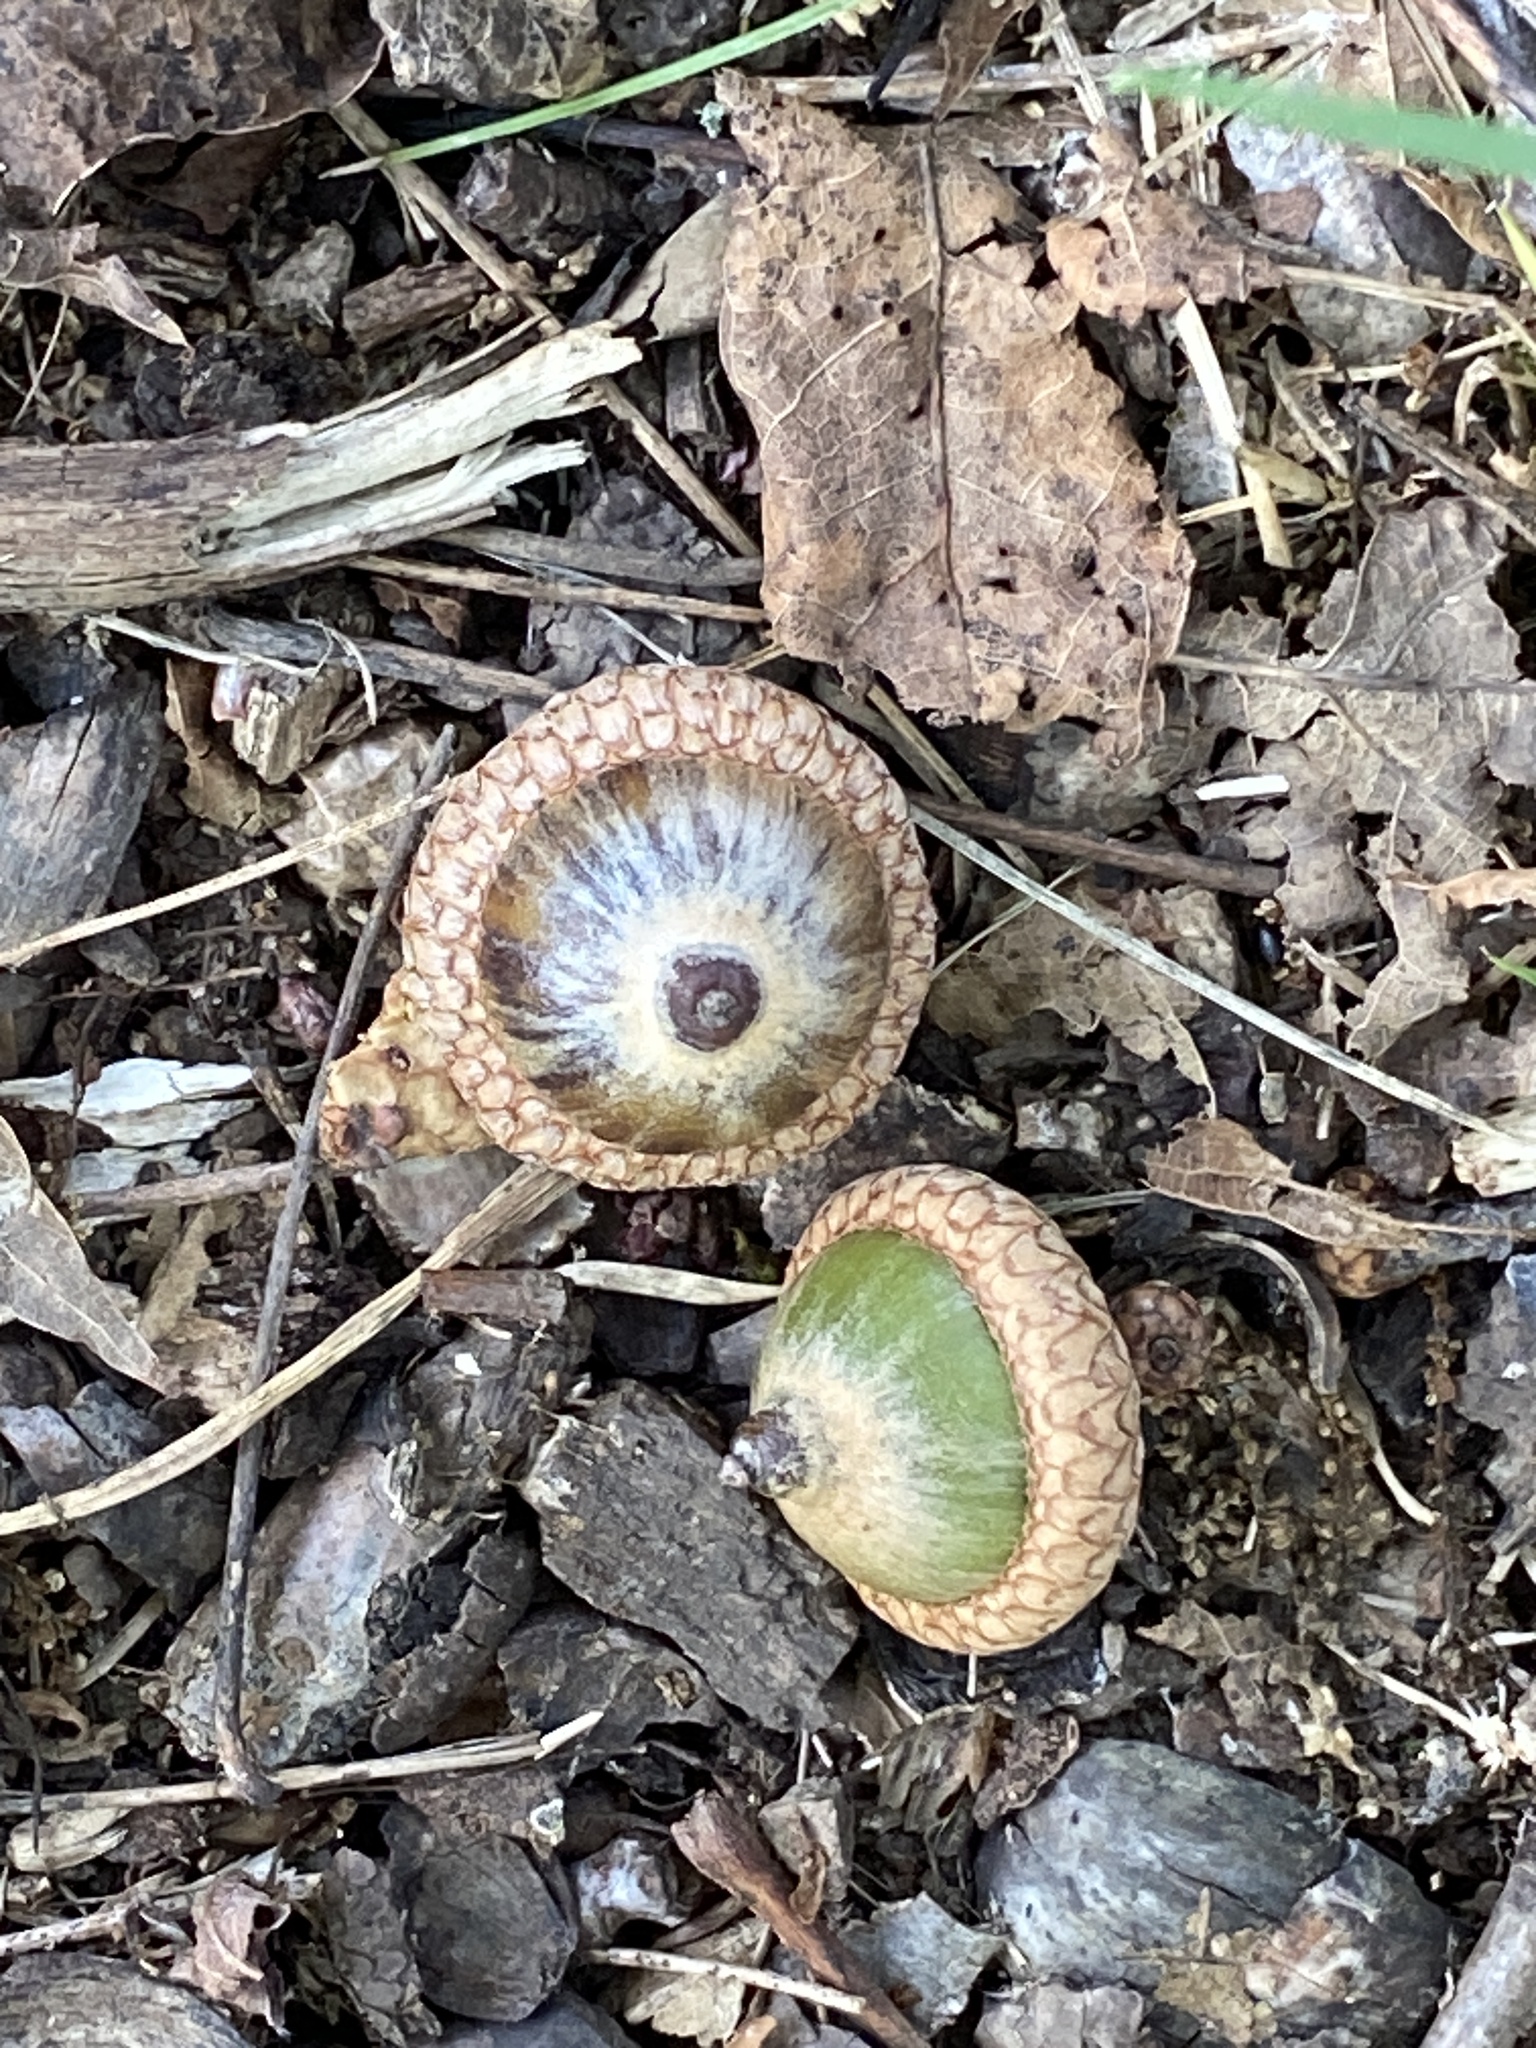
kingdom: Plantae
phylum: Tracheophyta
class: Magnoliopsida
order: Fagales
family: Fagaceae
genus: Quercus
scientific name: Quercus rubra
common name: Red oak
